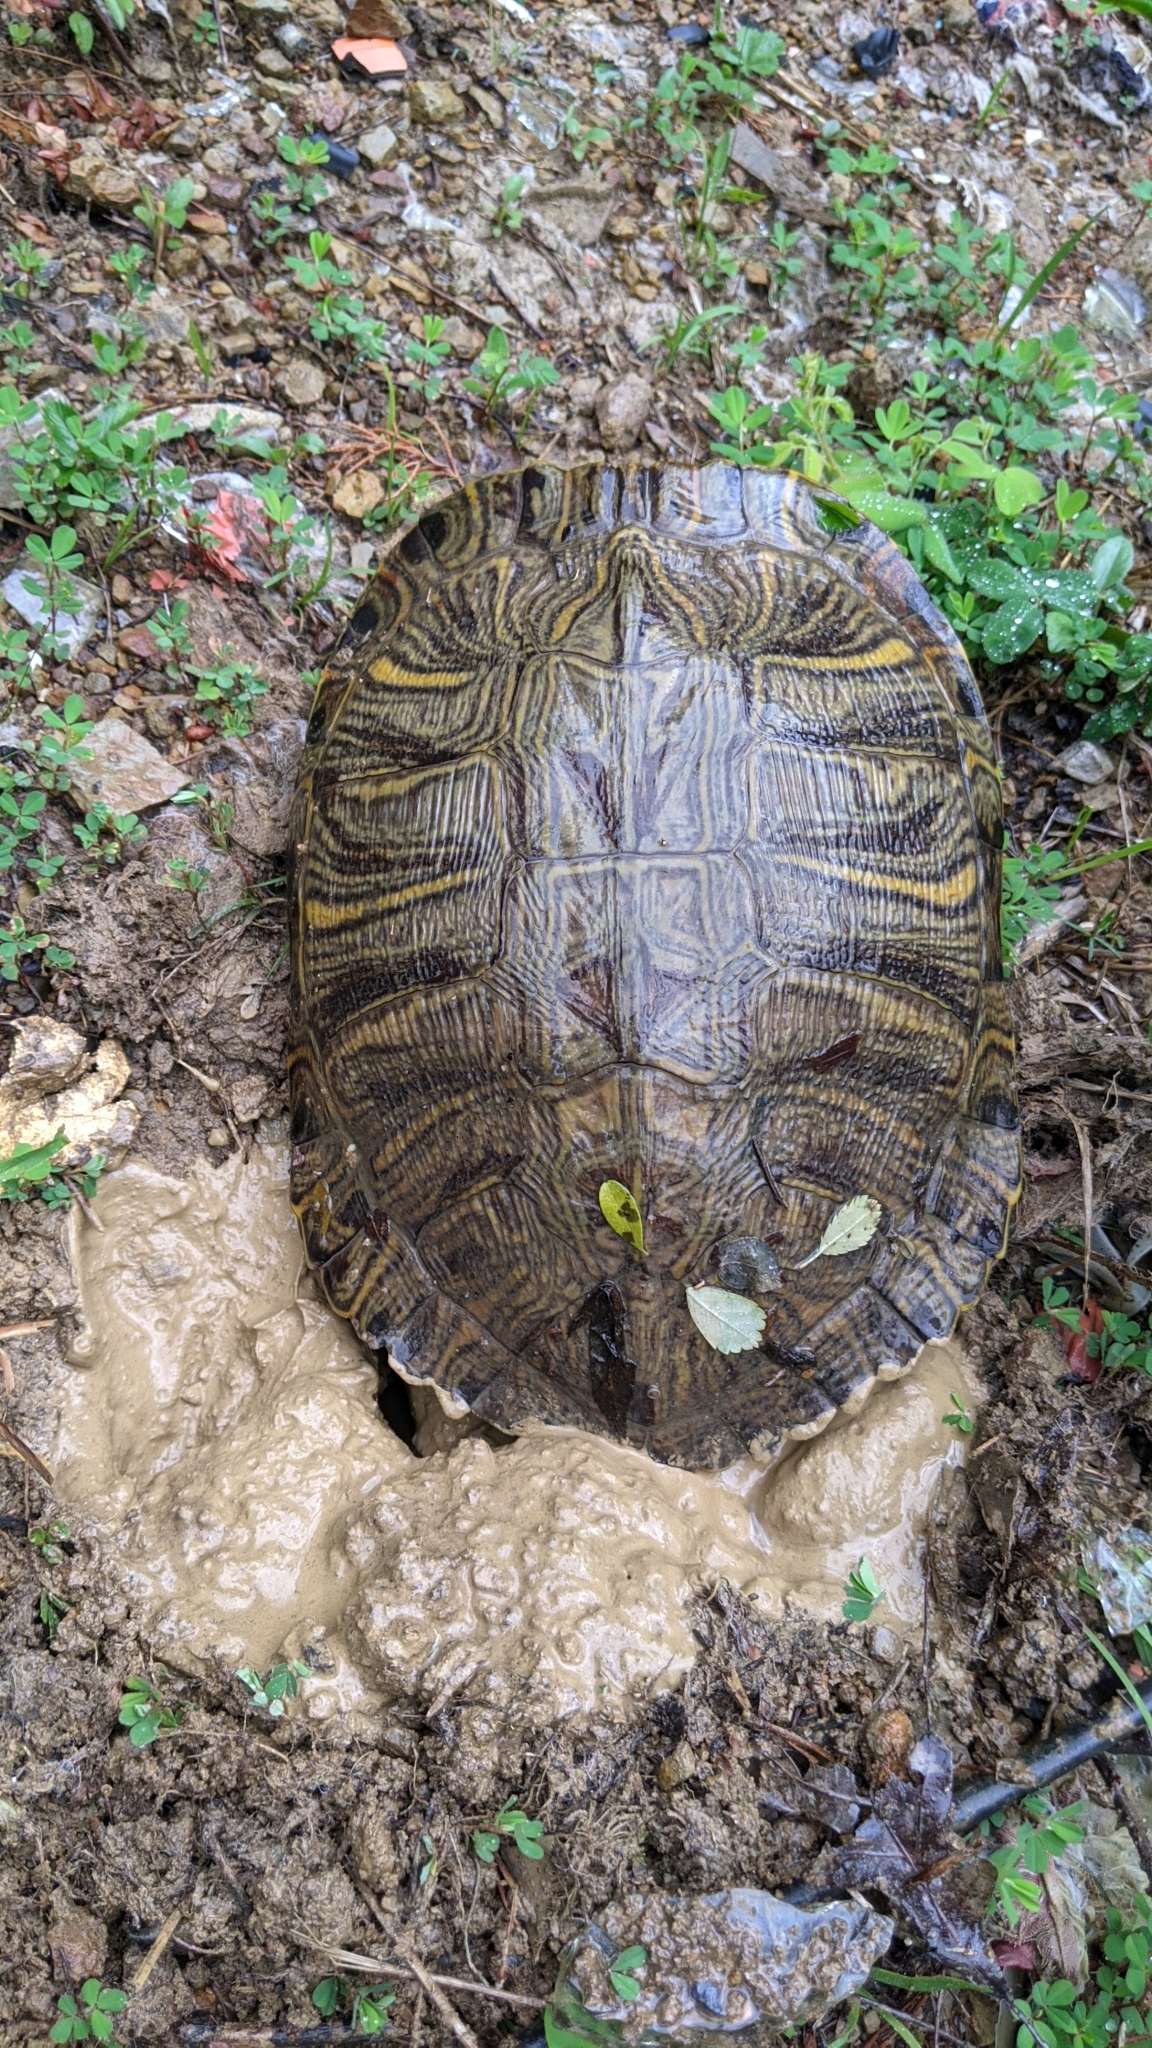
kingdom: Animalia
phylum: Chordata
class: Testudines
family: Emydidae
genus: Trachemys
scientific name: Trachemys scripta
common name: Slider
